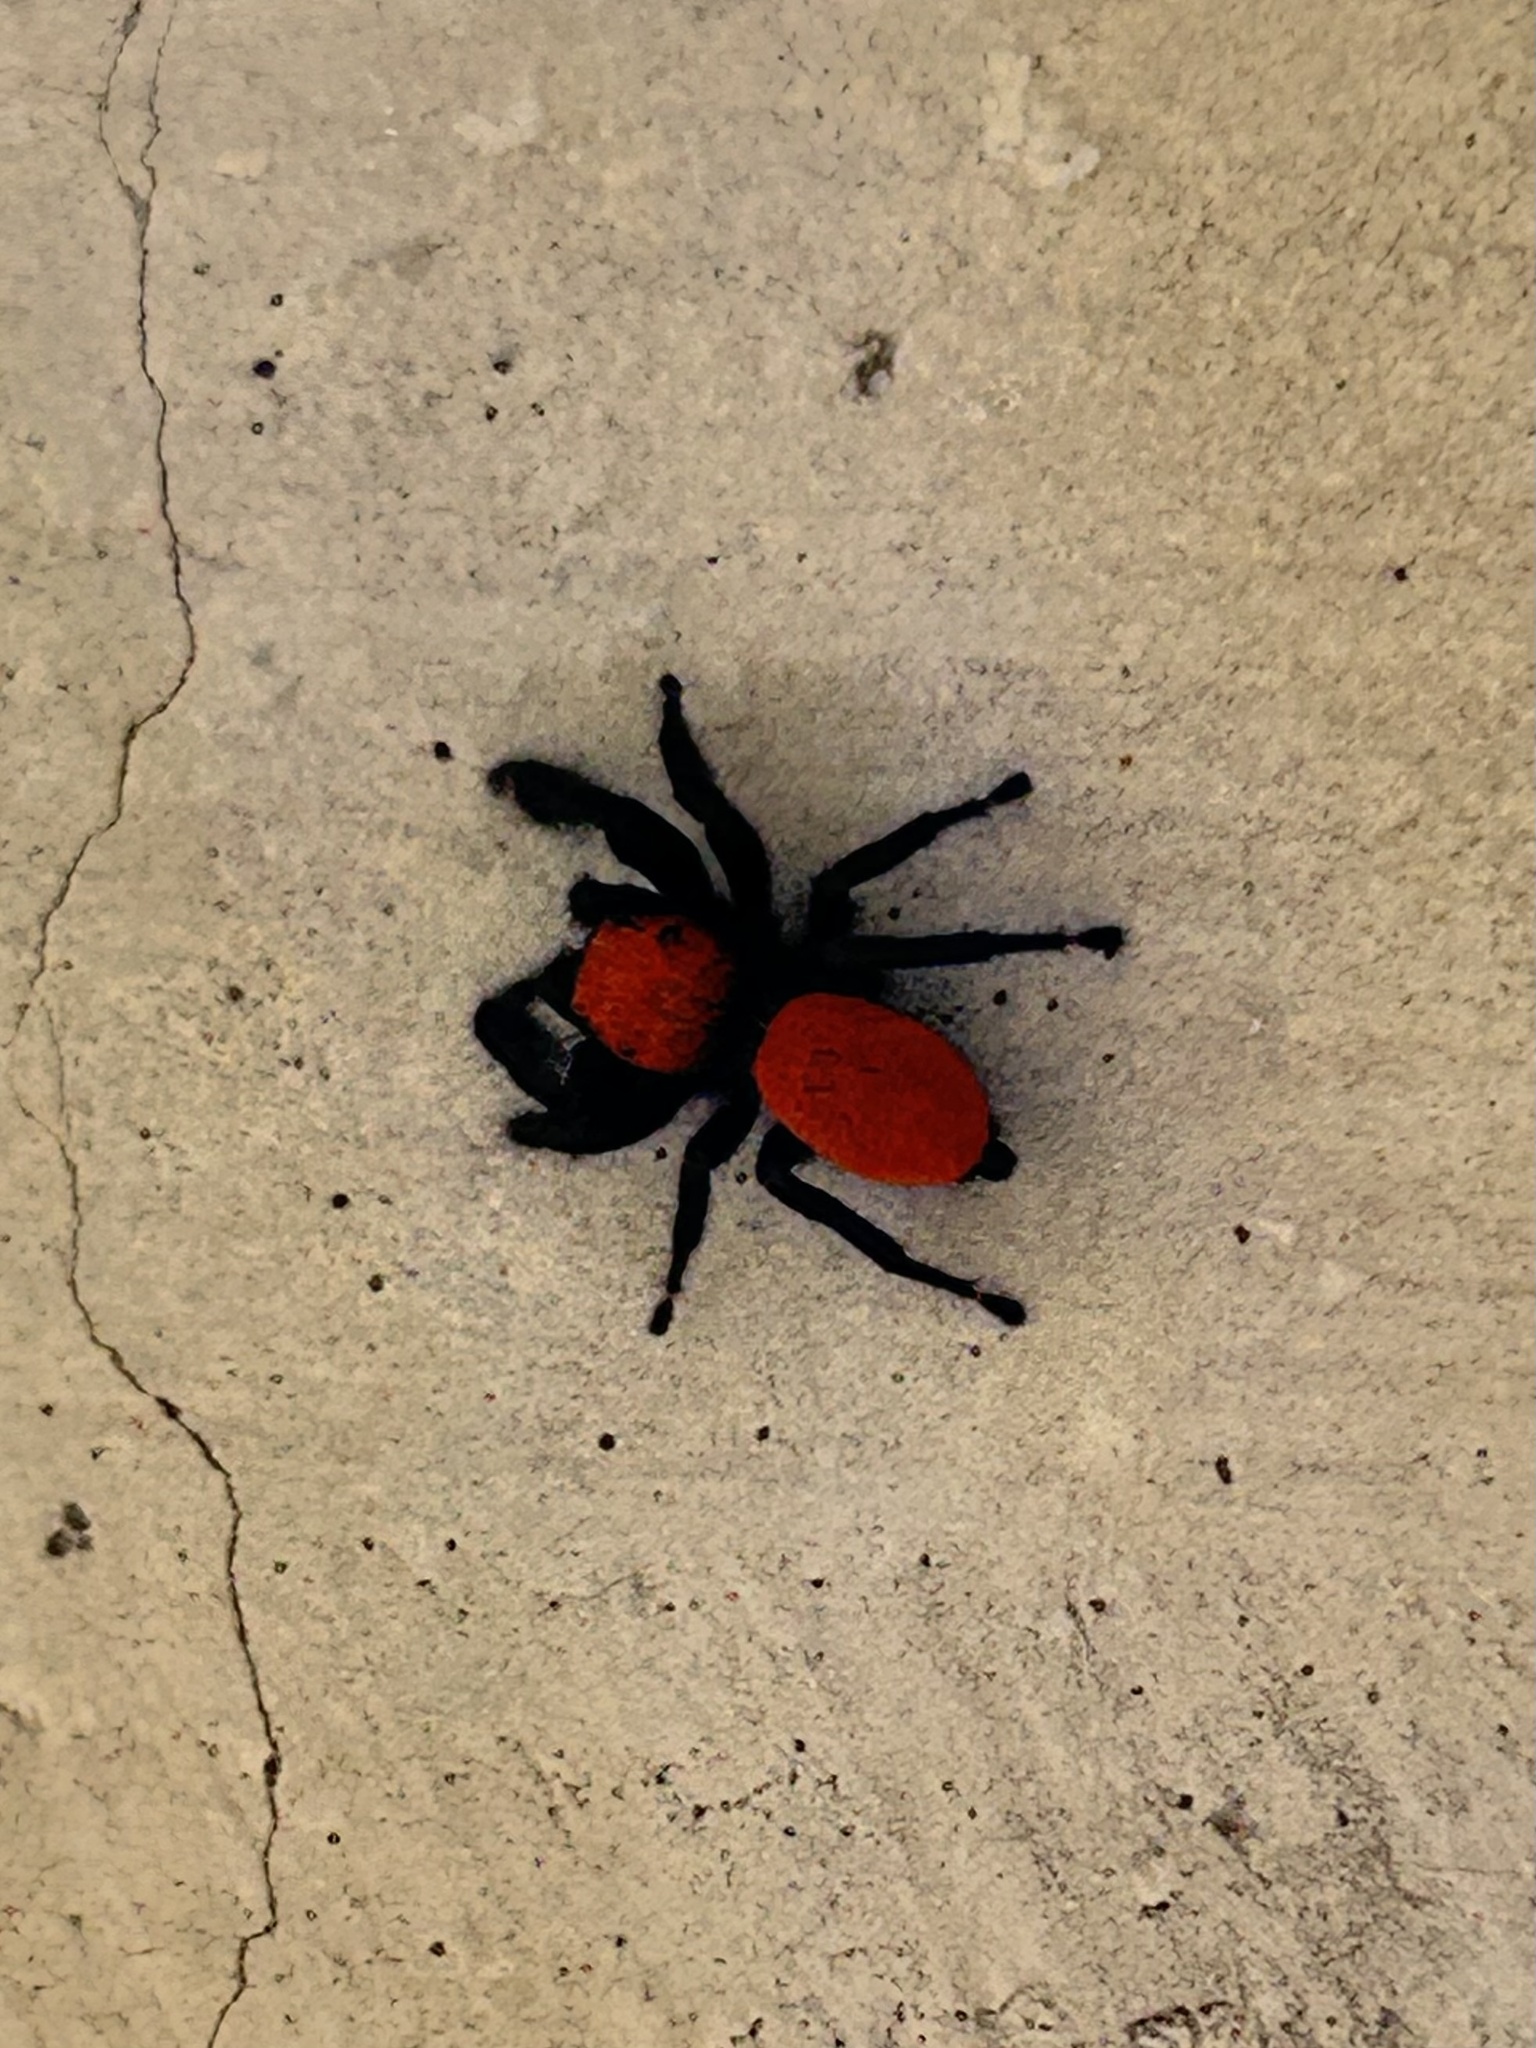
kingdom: Animalia
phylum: Arthropoda
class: Arachnida
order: Araneae
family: Salticidae
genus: Phidippus
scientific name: Phidippus apacheanus
